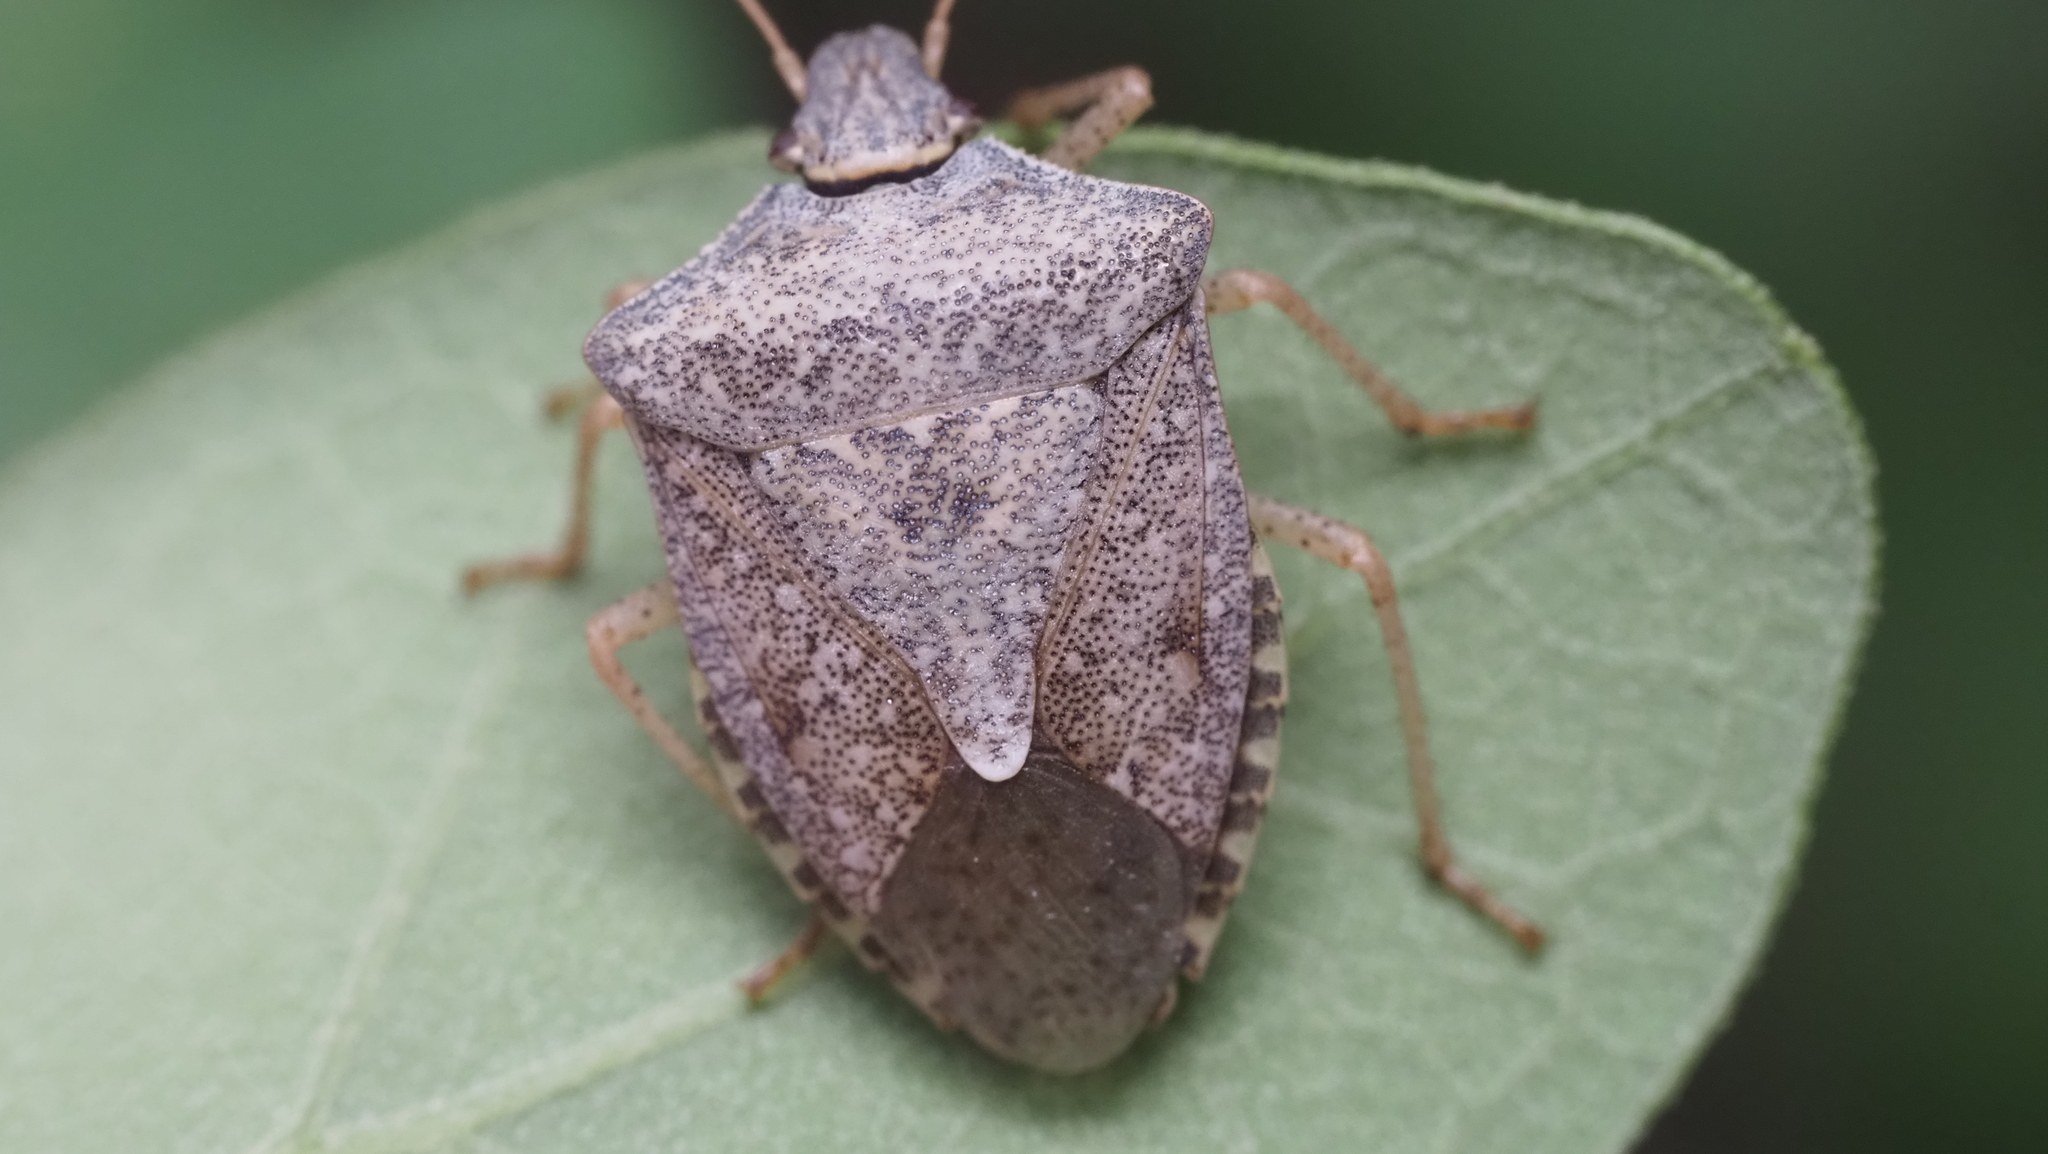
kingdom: Animalia
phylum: Arthropoda
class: Insecta
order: Hemiptera
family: Pentatomidae
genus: Euschistus
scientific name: Euschistus servus
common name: Brown stink bug
